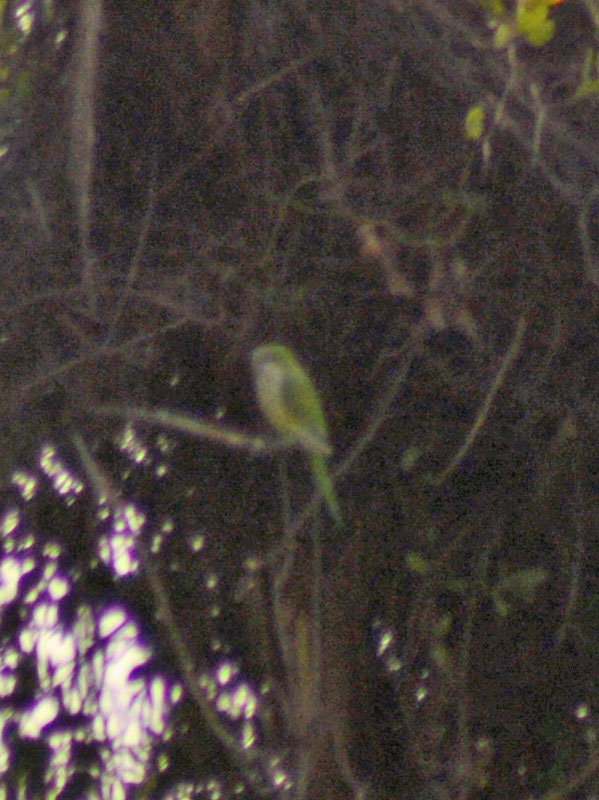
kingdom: Animalia
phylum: Chordata
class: Aves
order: Psittaciformes
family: Psittacidae
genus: Myiopsitta
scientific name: Myiopsitta monachus
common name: Monk parakeet
